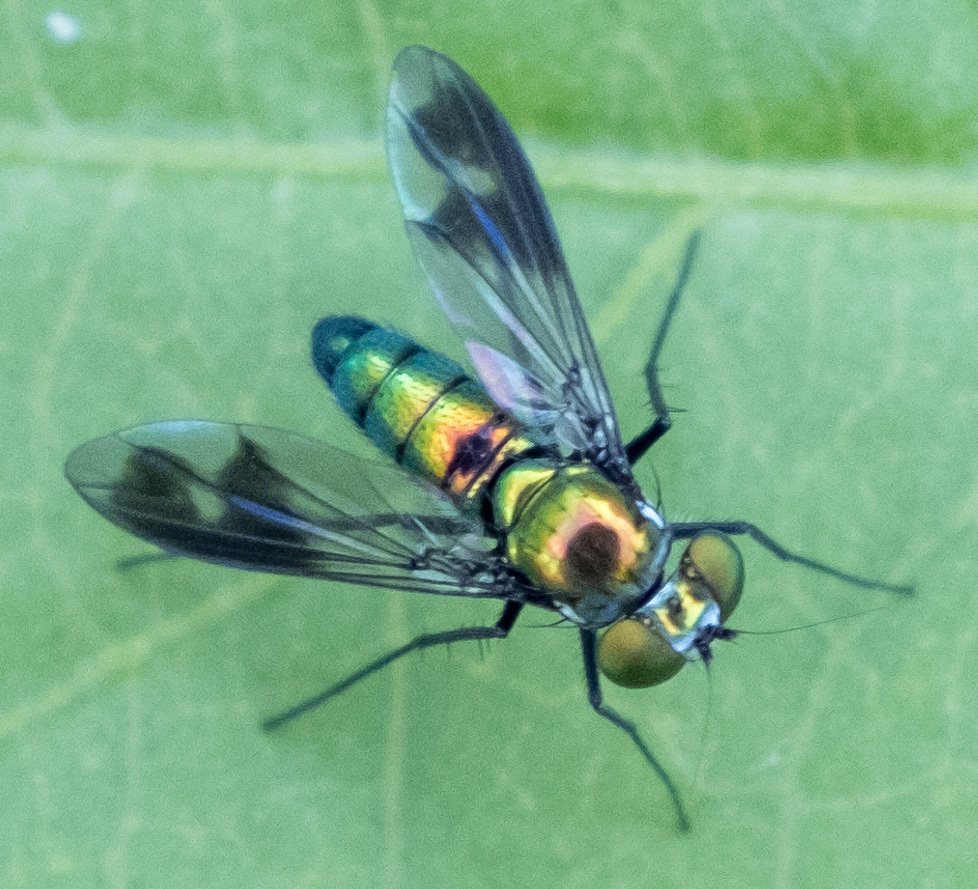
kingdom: Animalia
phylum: Arthropoda
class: Insecta
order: Diptera
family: Dolichopodidae
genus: Condylostylus
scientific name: Condylostylus patibulatus
